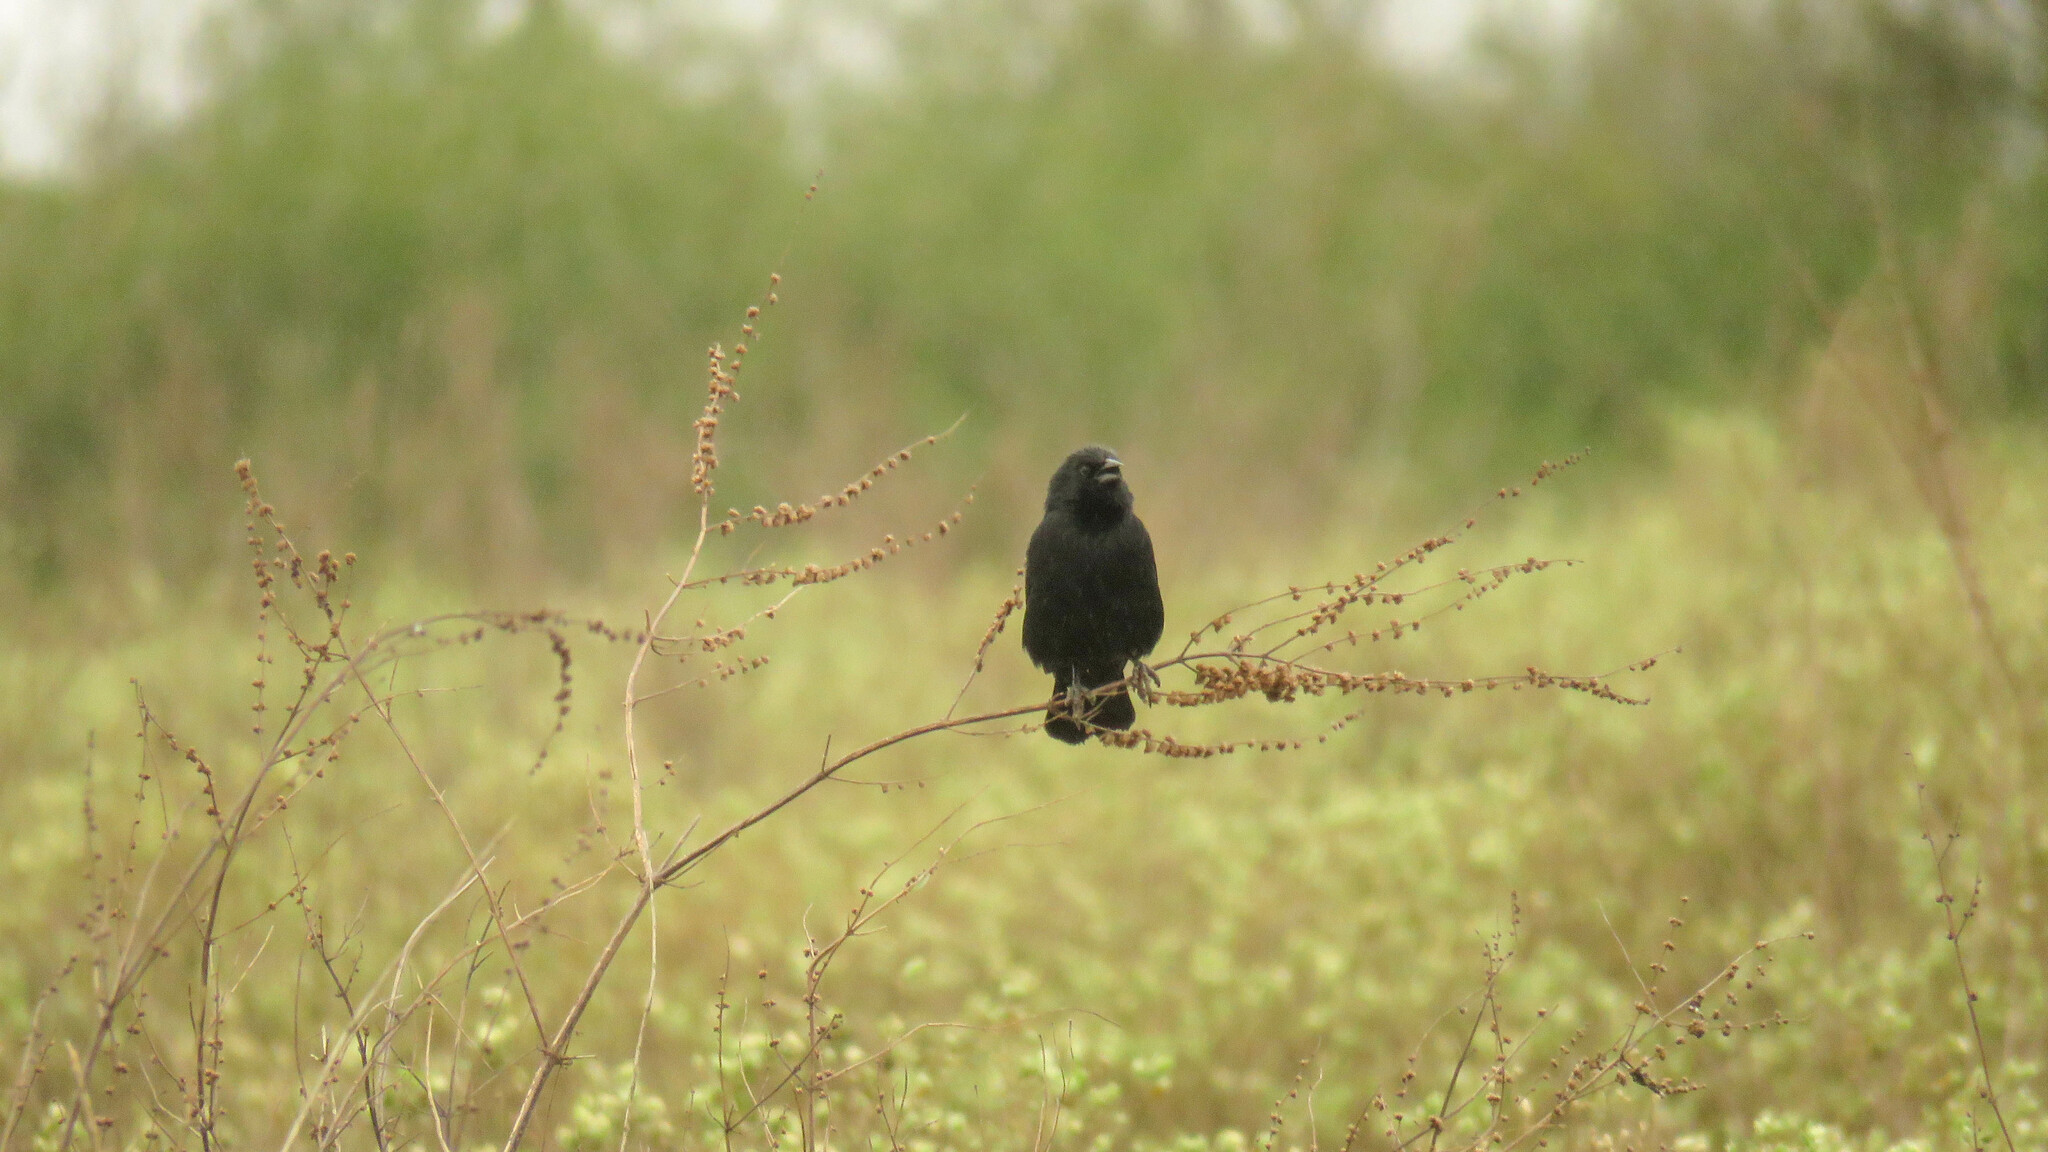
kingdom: Animalia
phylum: Chordata
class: Aves
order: Passeriformes
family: Icteridae
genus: Gnorimopsar
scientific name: Gnorimopsar chopi
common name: Chopi blackbird
